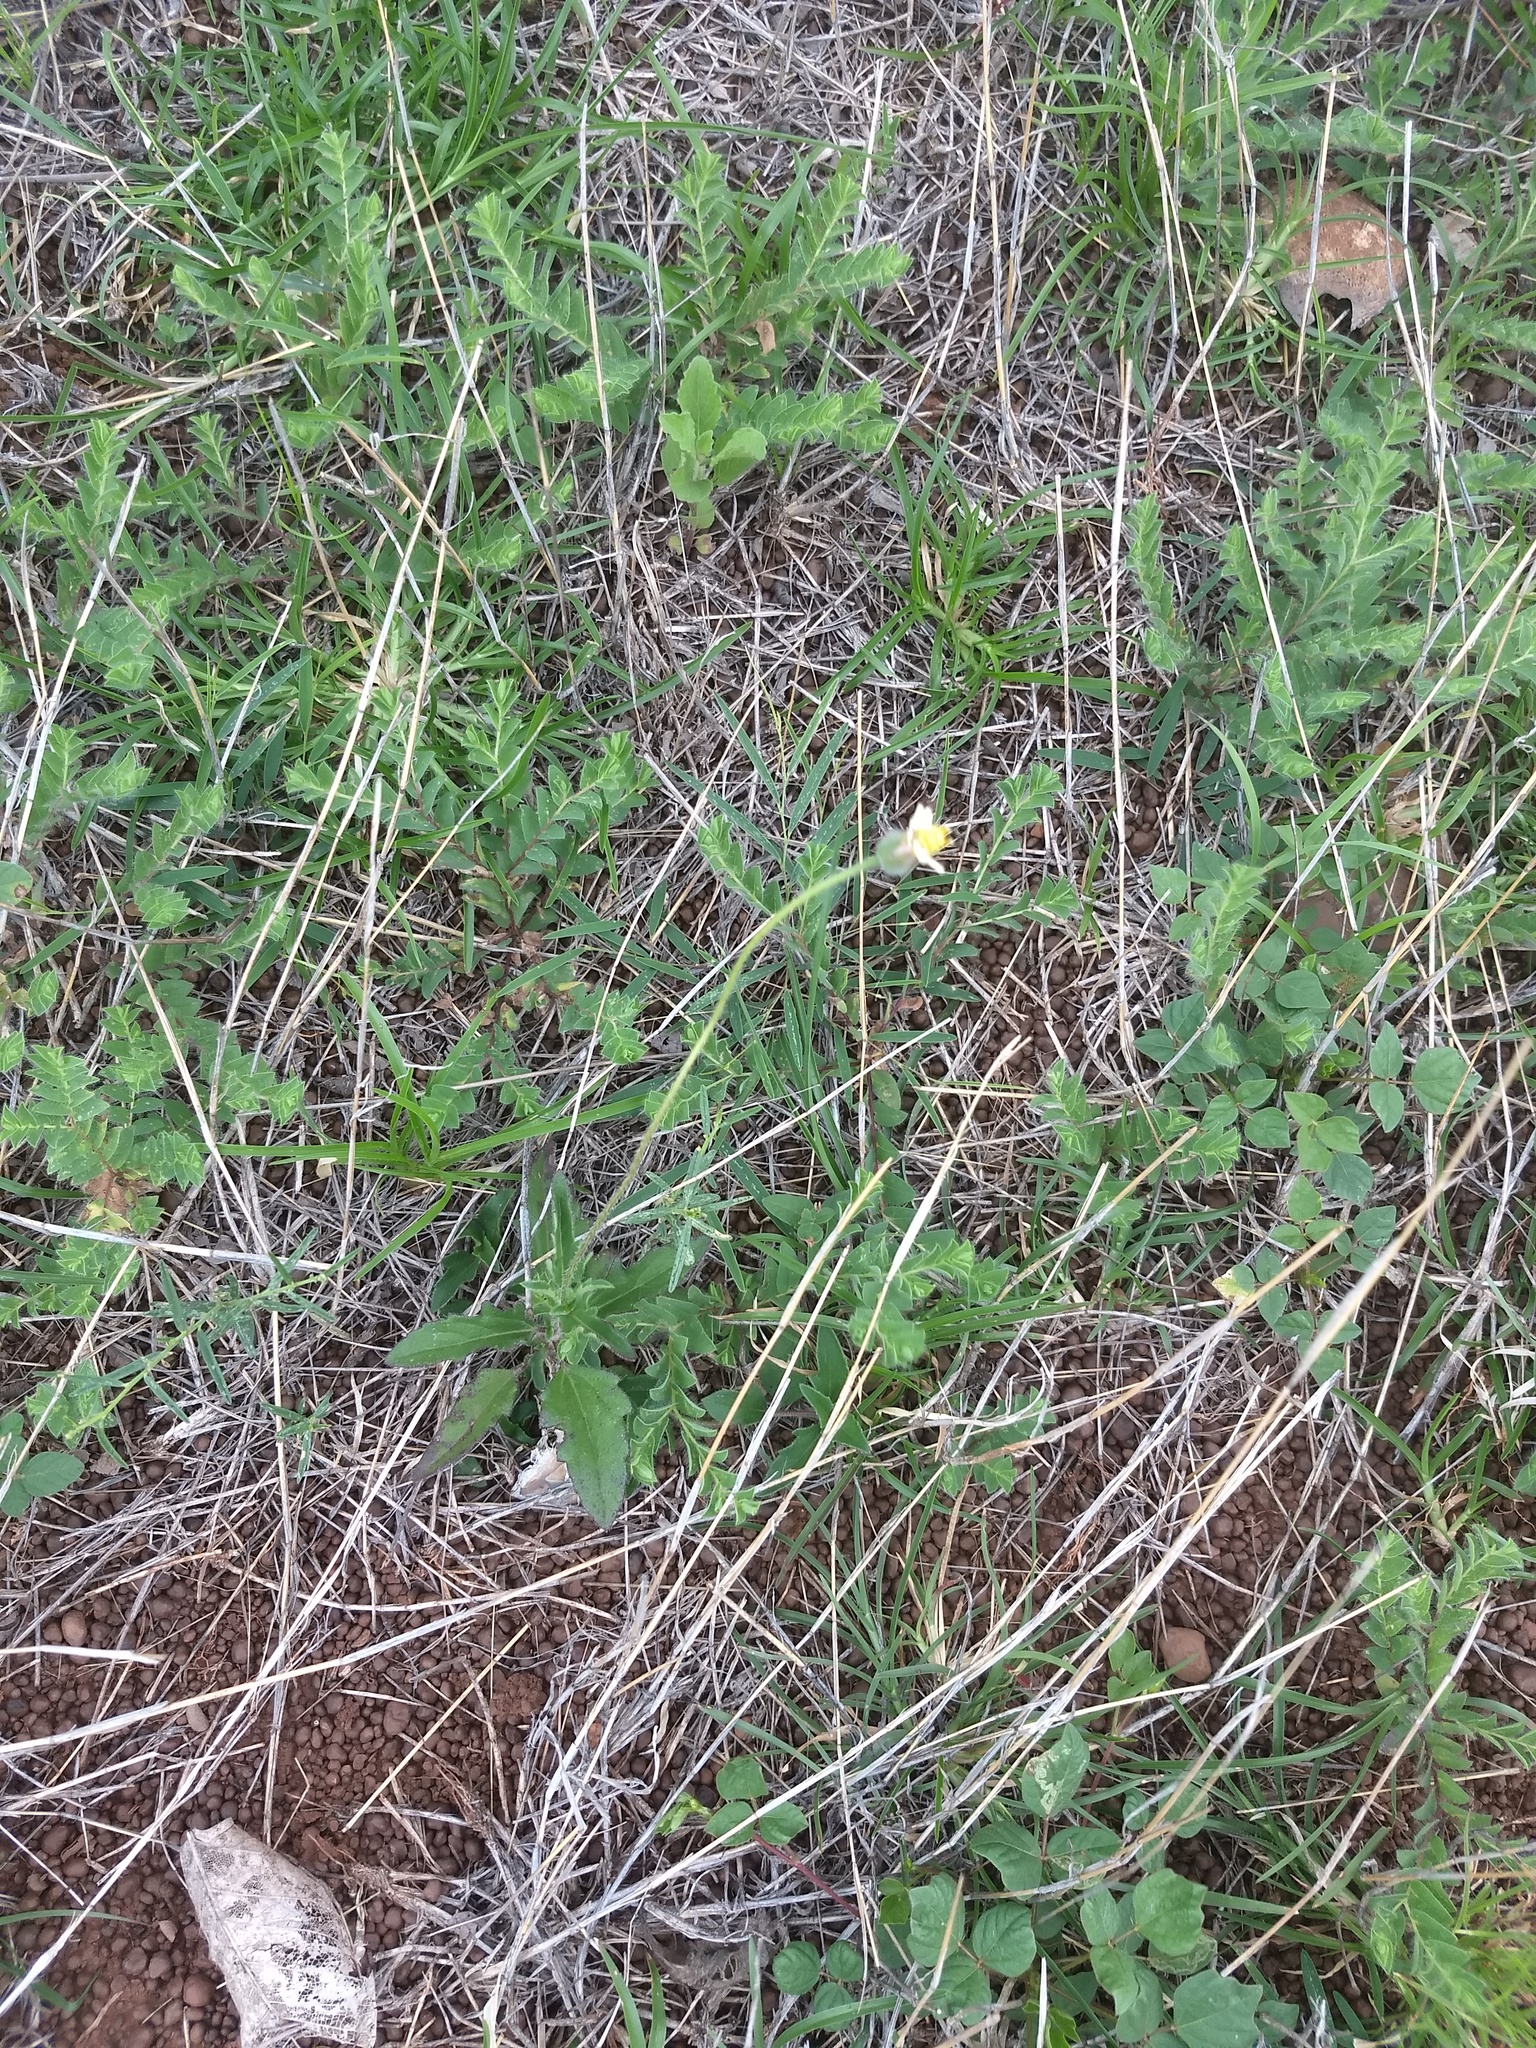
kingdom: Plantae
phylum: Tracheophyta
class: Magnoliopsida
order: Asterales
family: Asteraceae
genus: Tridax
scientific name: Tridax procumbens
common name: Coatbuttons
